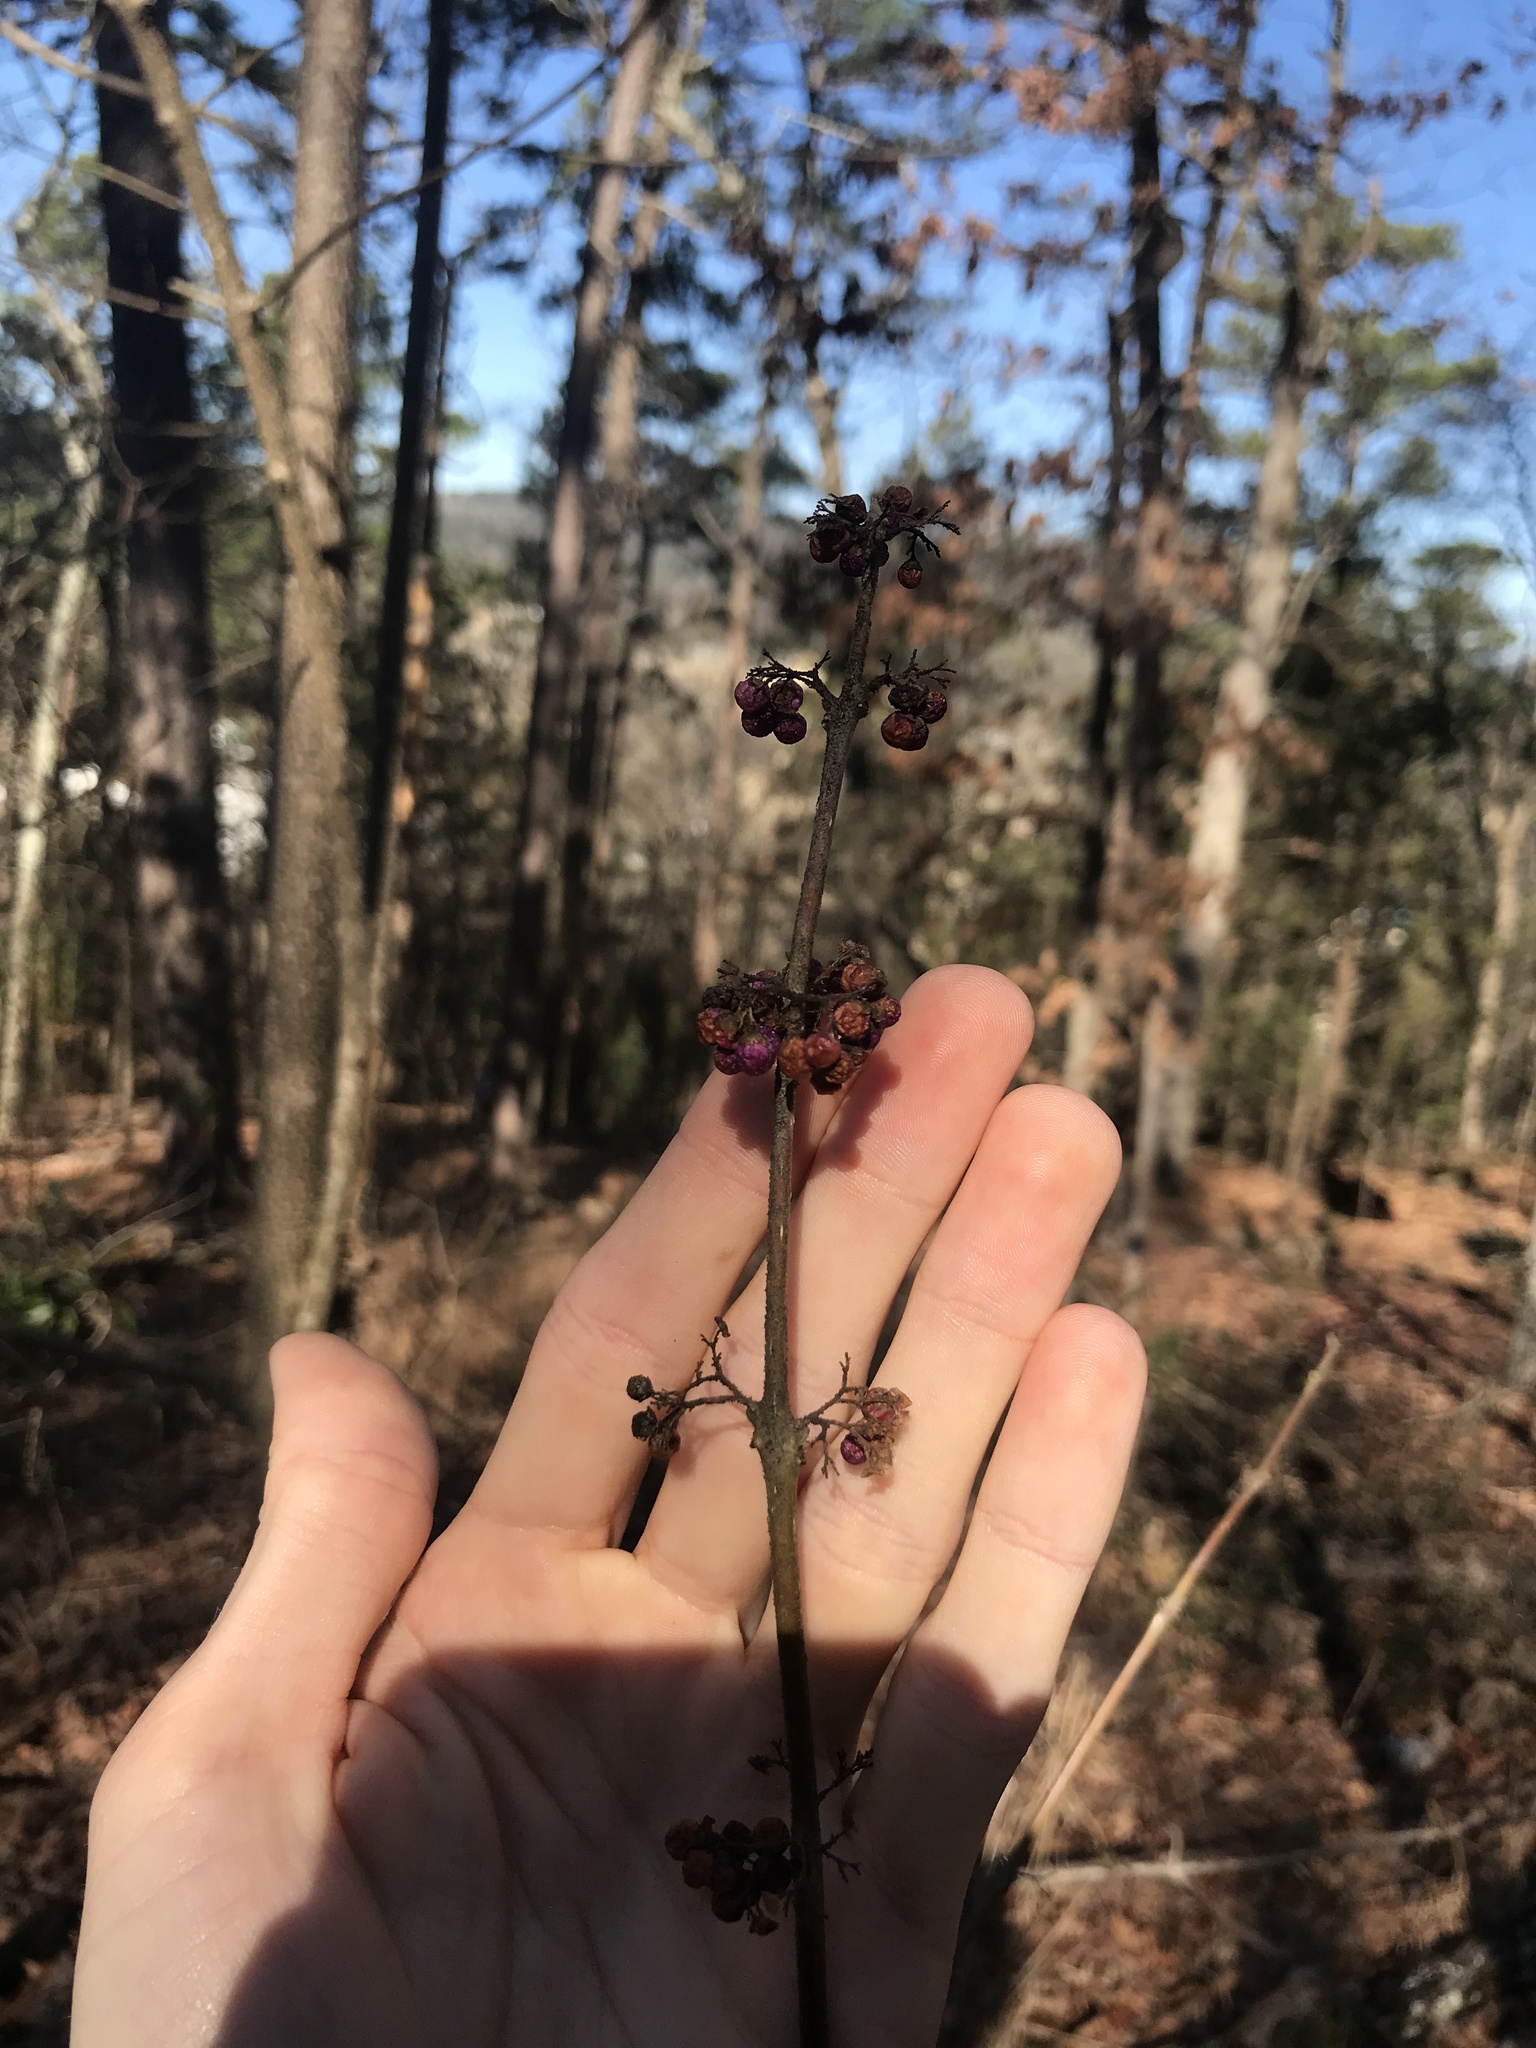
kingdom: Plantae
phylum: Tracheophyta
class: Magnoliopsida
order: Lamiales
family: Lamiaceae
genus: Callicarpa
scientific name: Callicarpa americana
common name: American beautyberry
